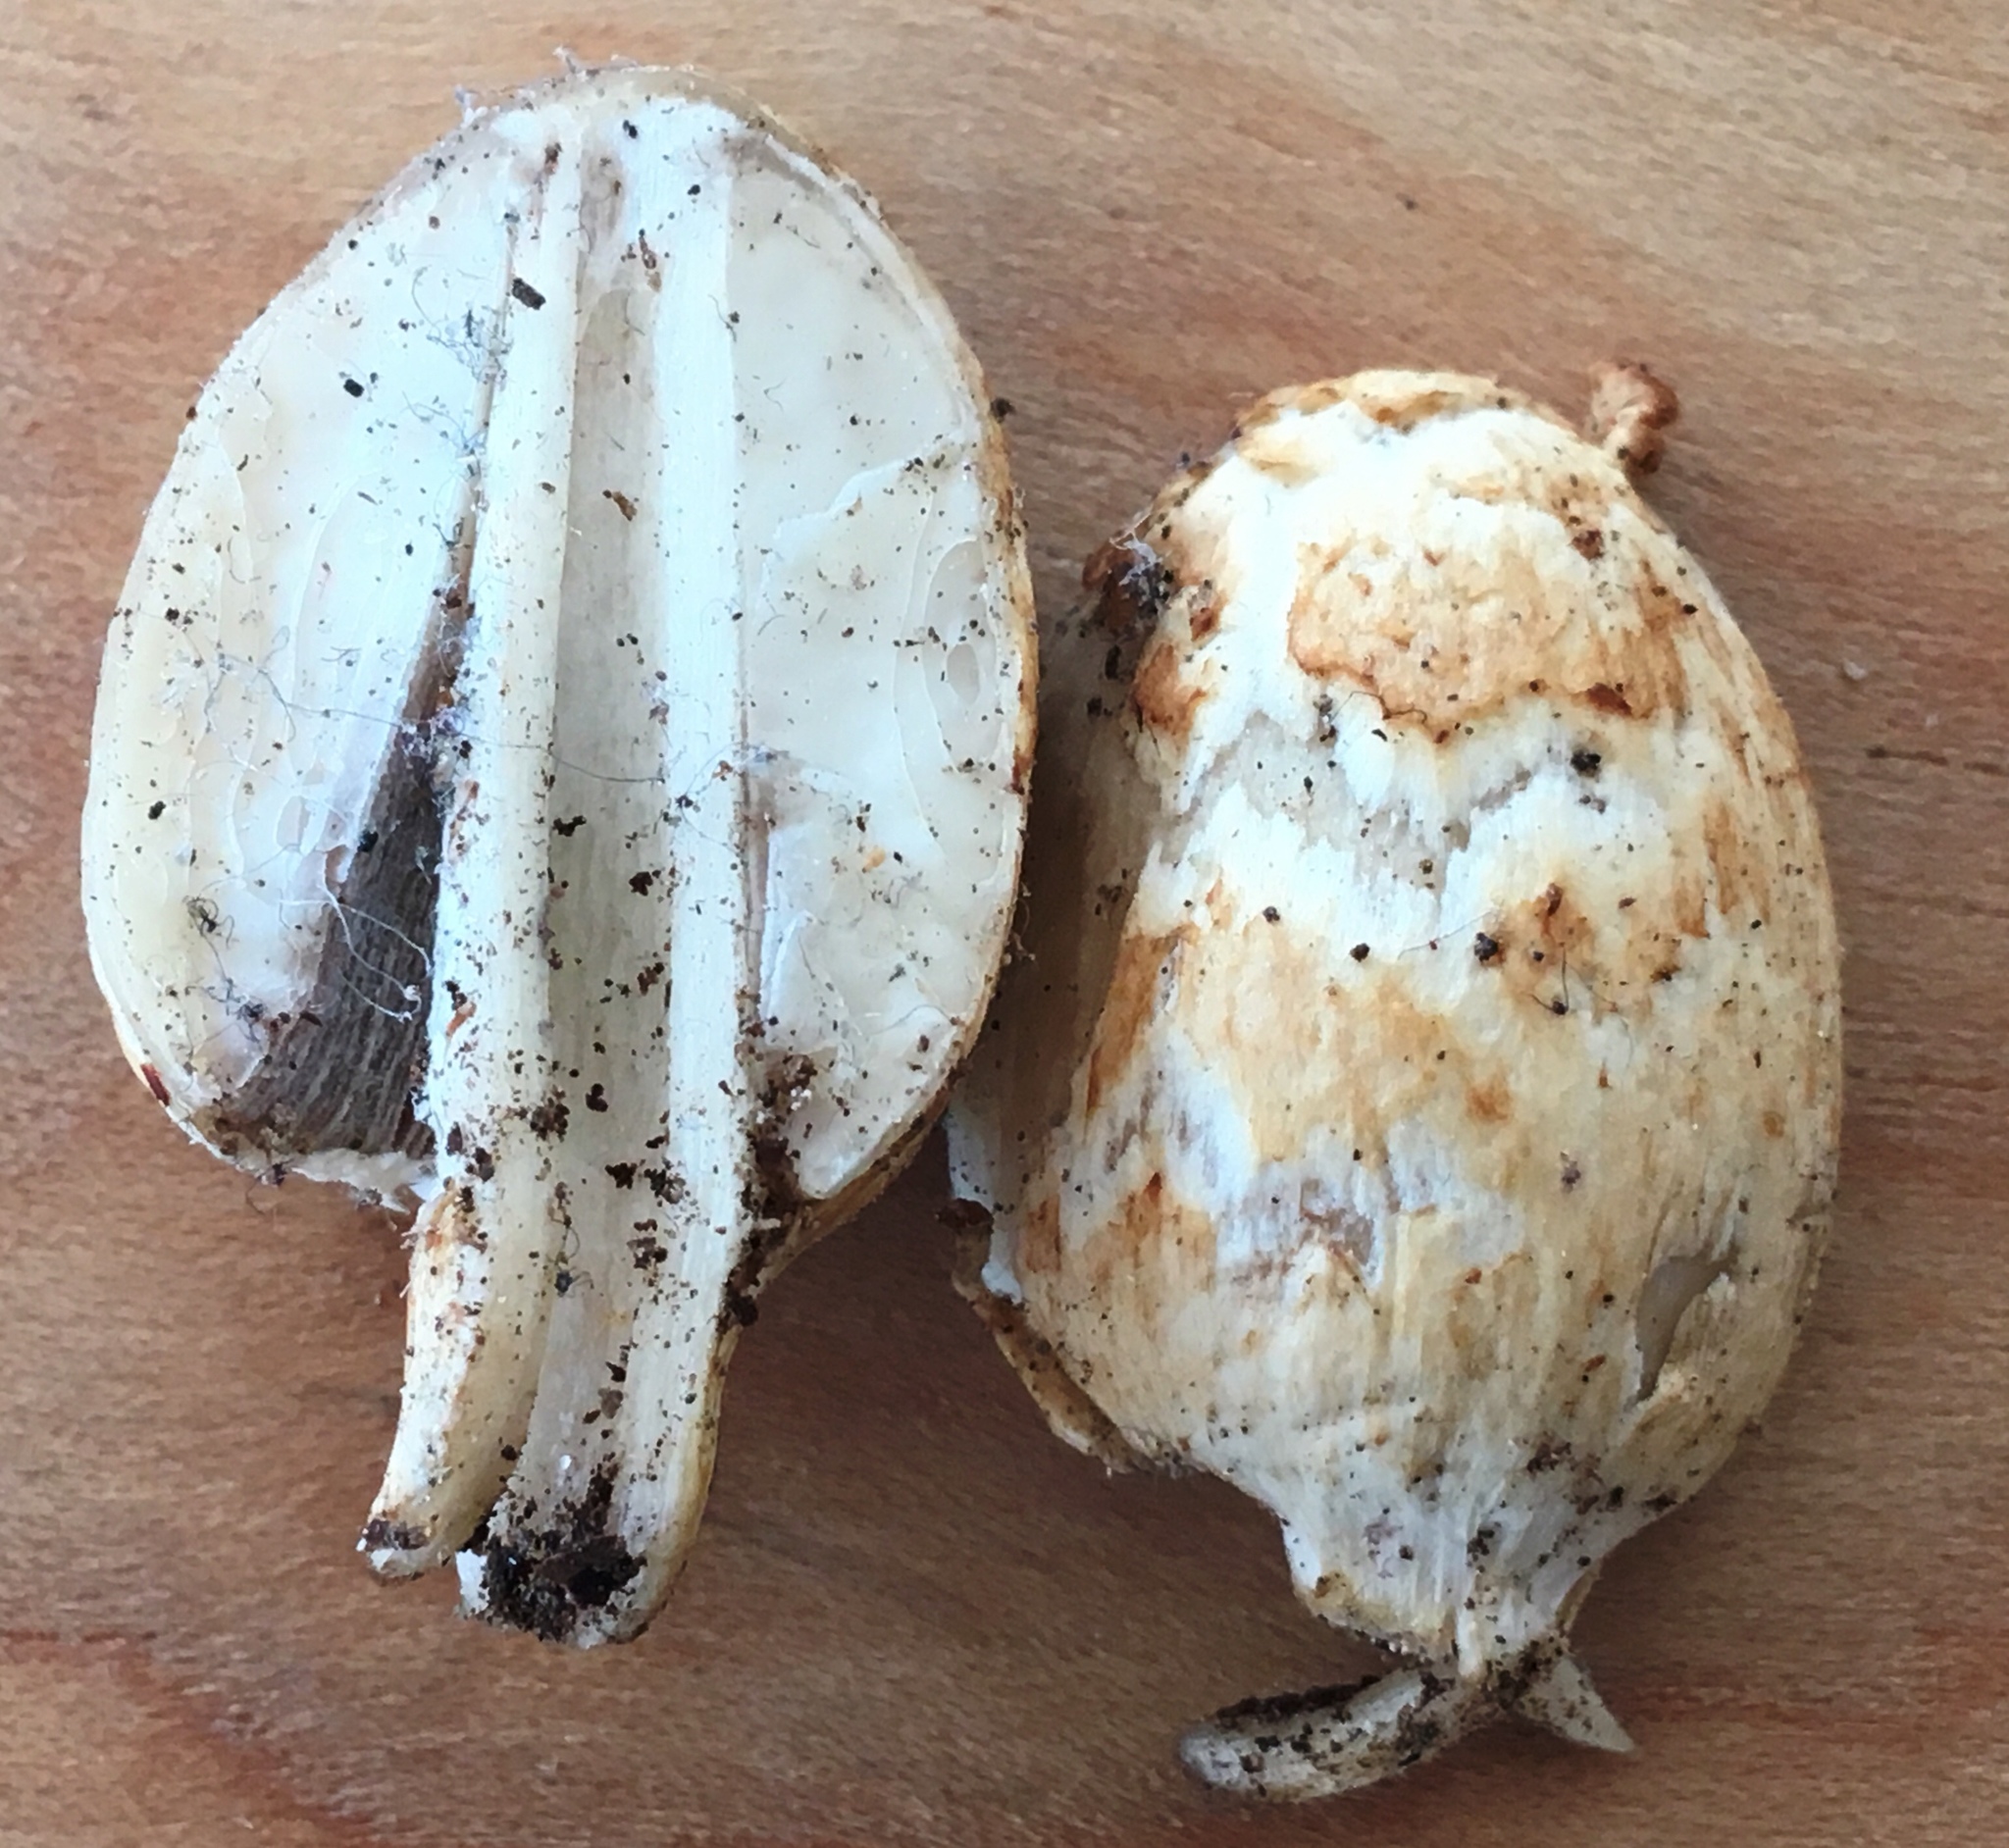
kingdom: Fungi
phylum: Basidiomycota
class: Agaricomycetes
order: Agaricales
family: Psathyrellaceae
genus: Coprinopsis
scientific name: Coprinopsis variegata
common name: Scaly ink cap
